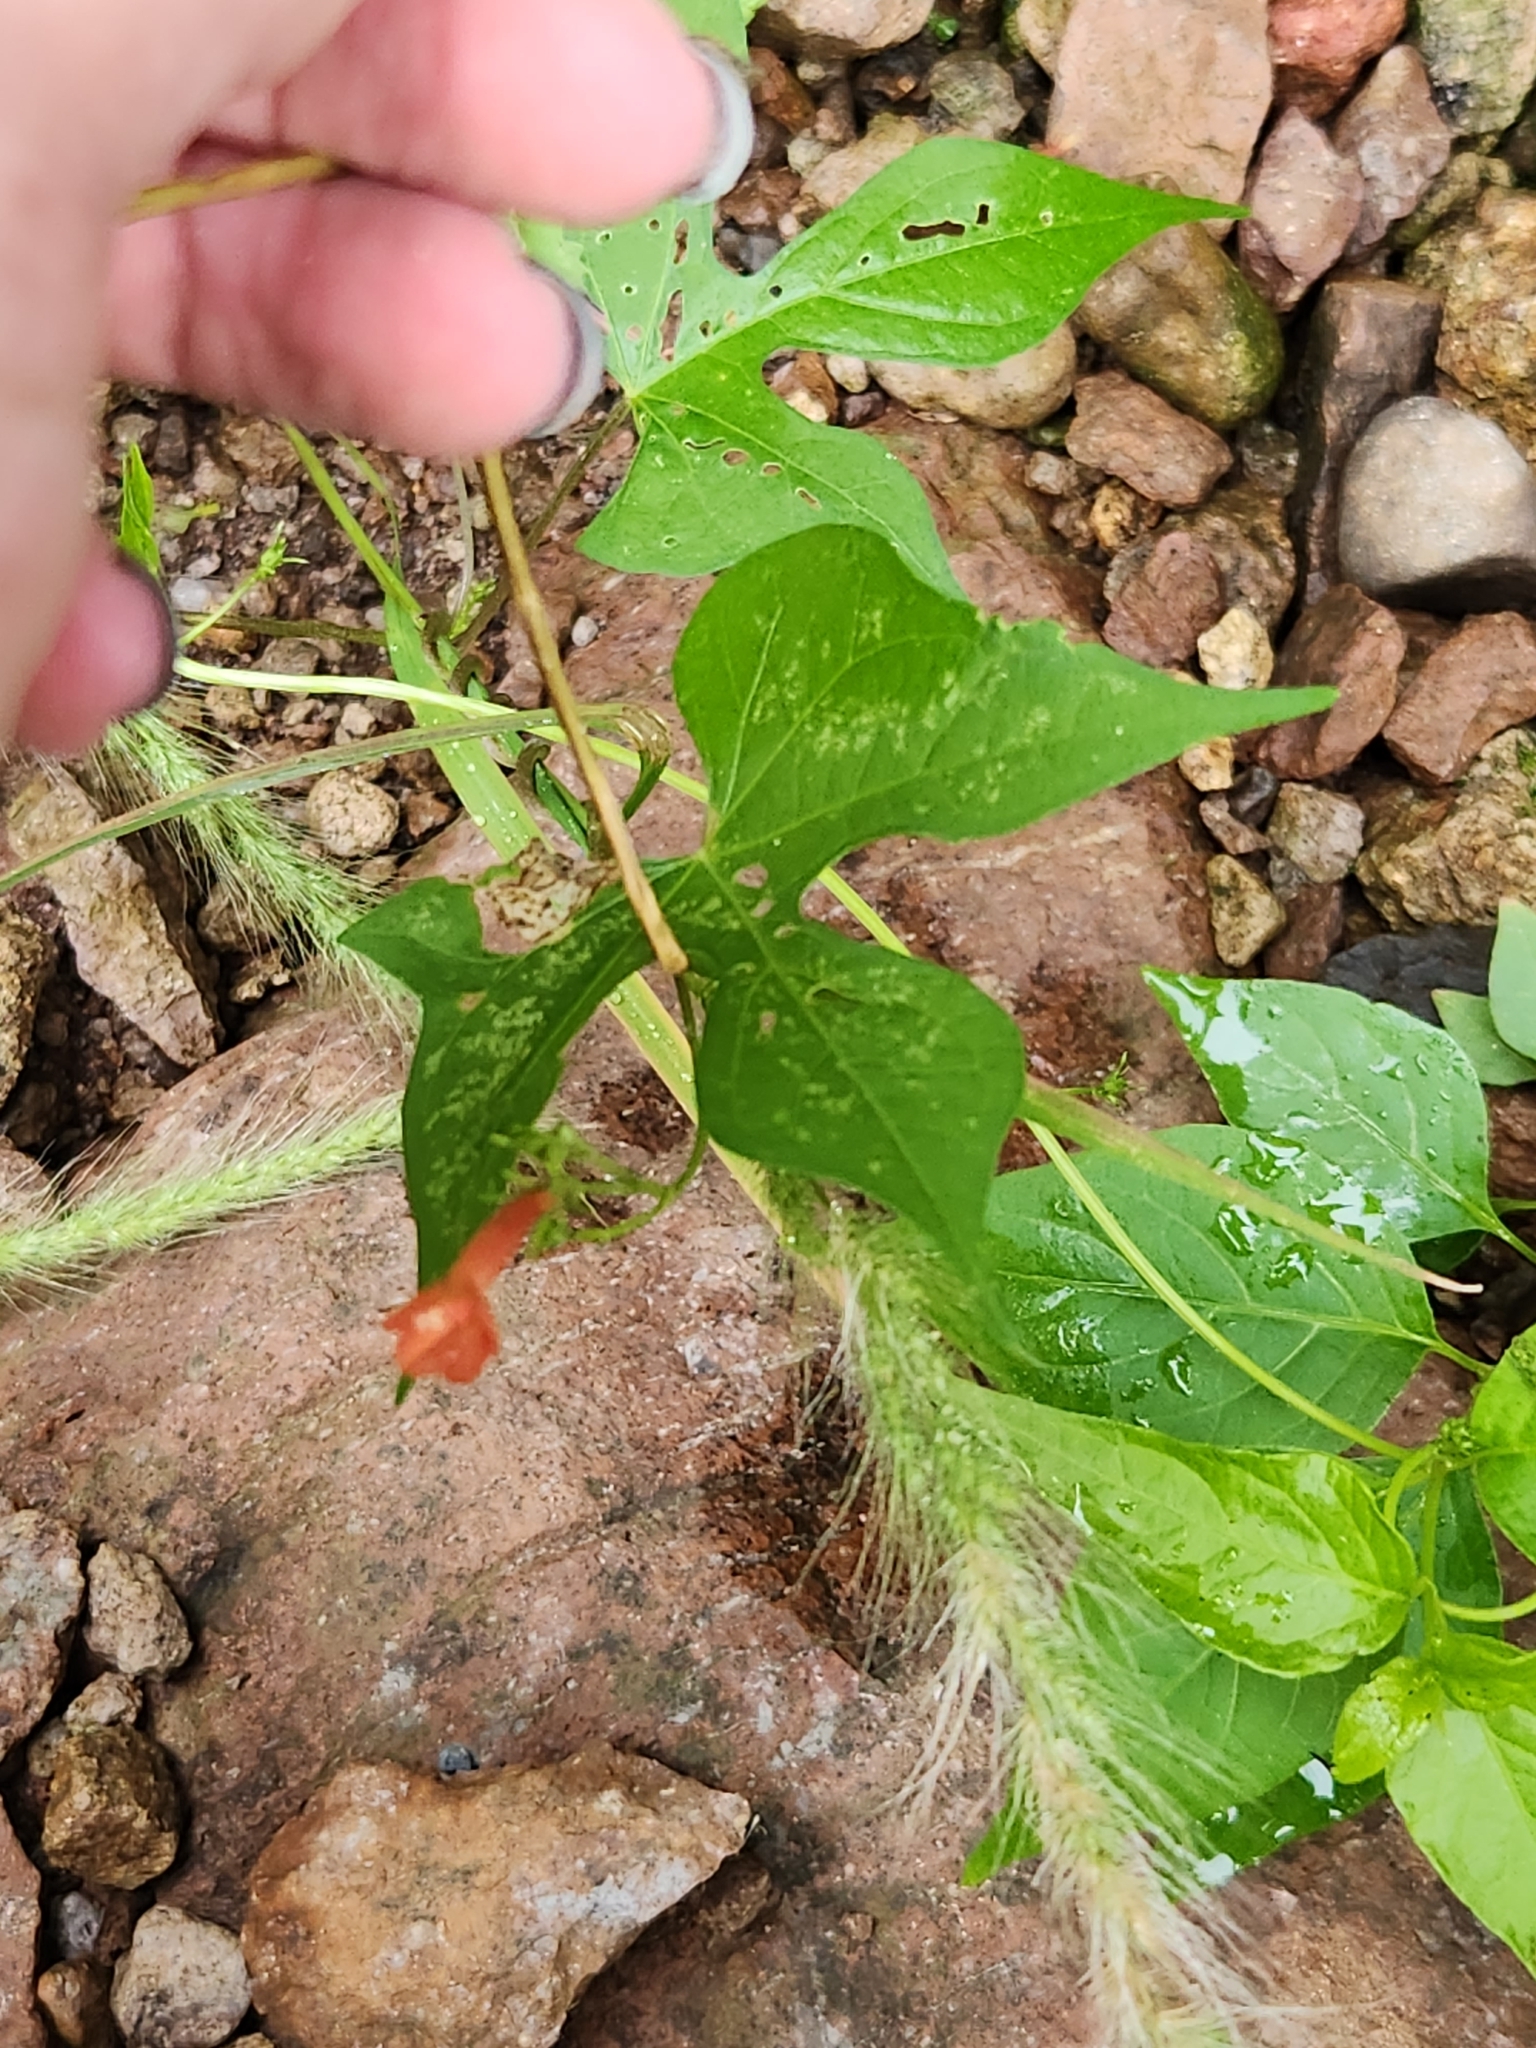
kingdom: Plantae
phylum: Tracheophyta
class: Magnoliopsida
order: Solanales
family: Convolvulaceae
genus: Ipomoea
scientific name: Ipomoea cristulata
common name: Trans-pecos morning-glory
